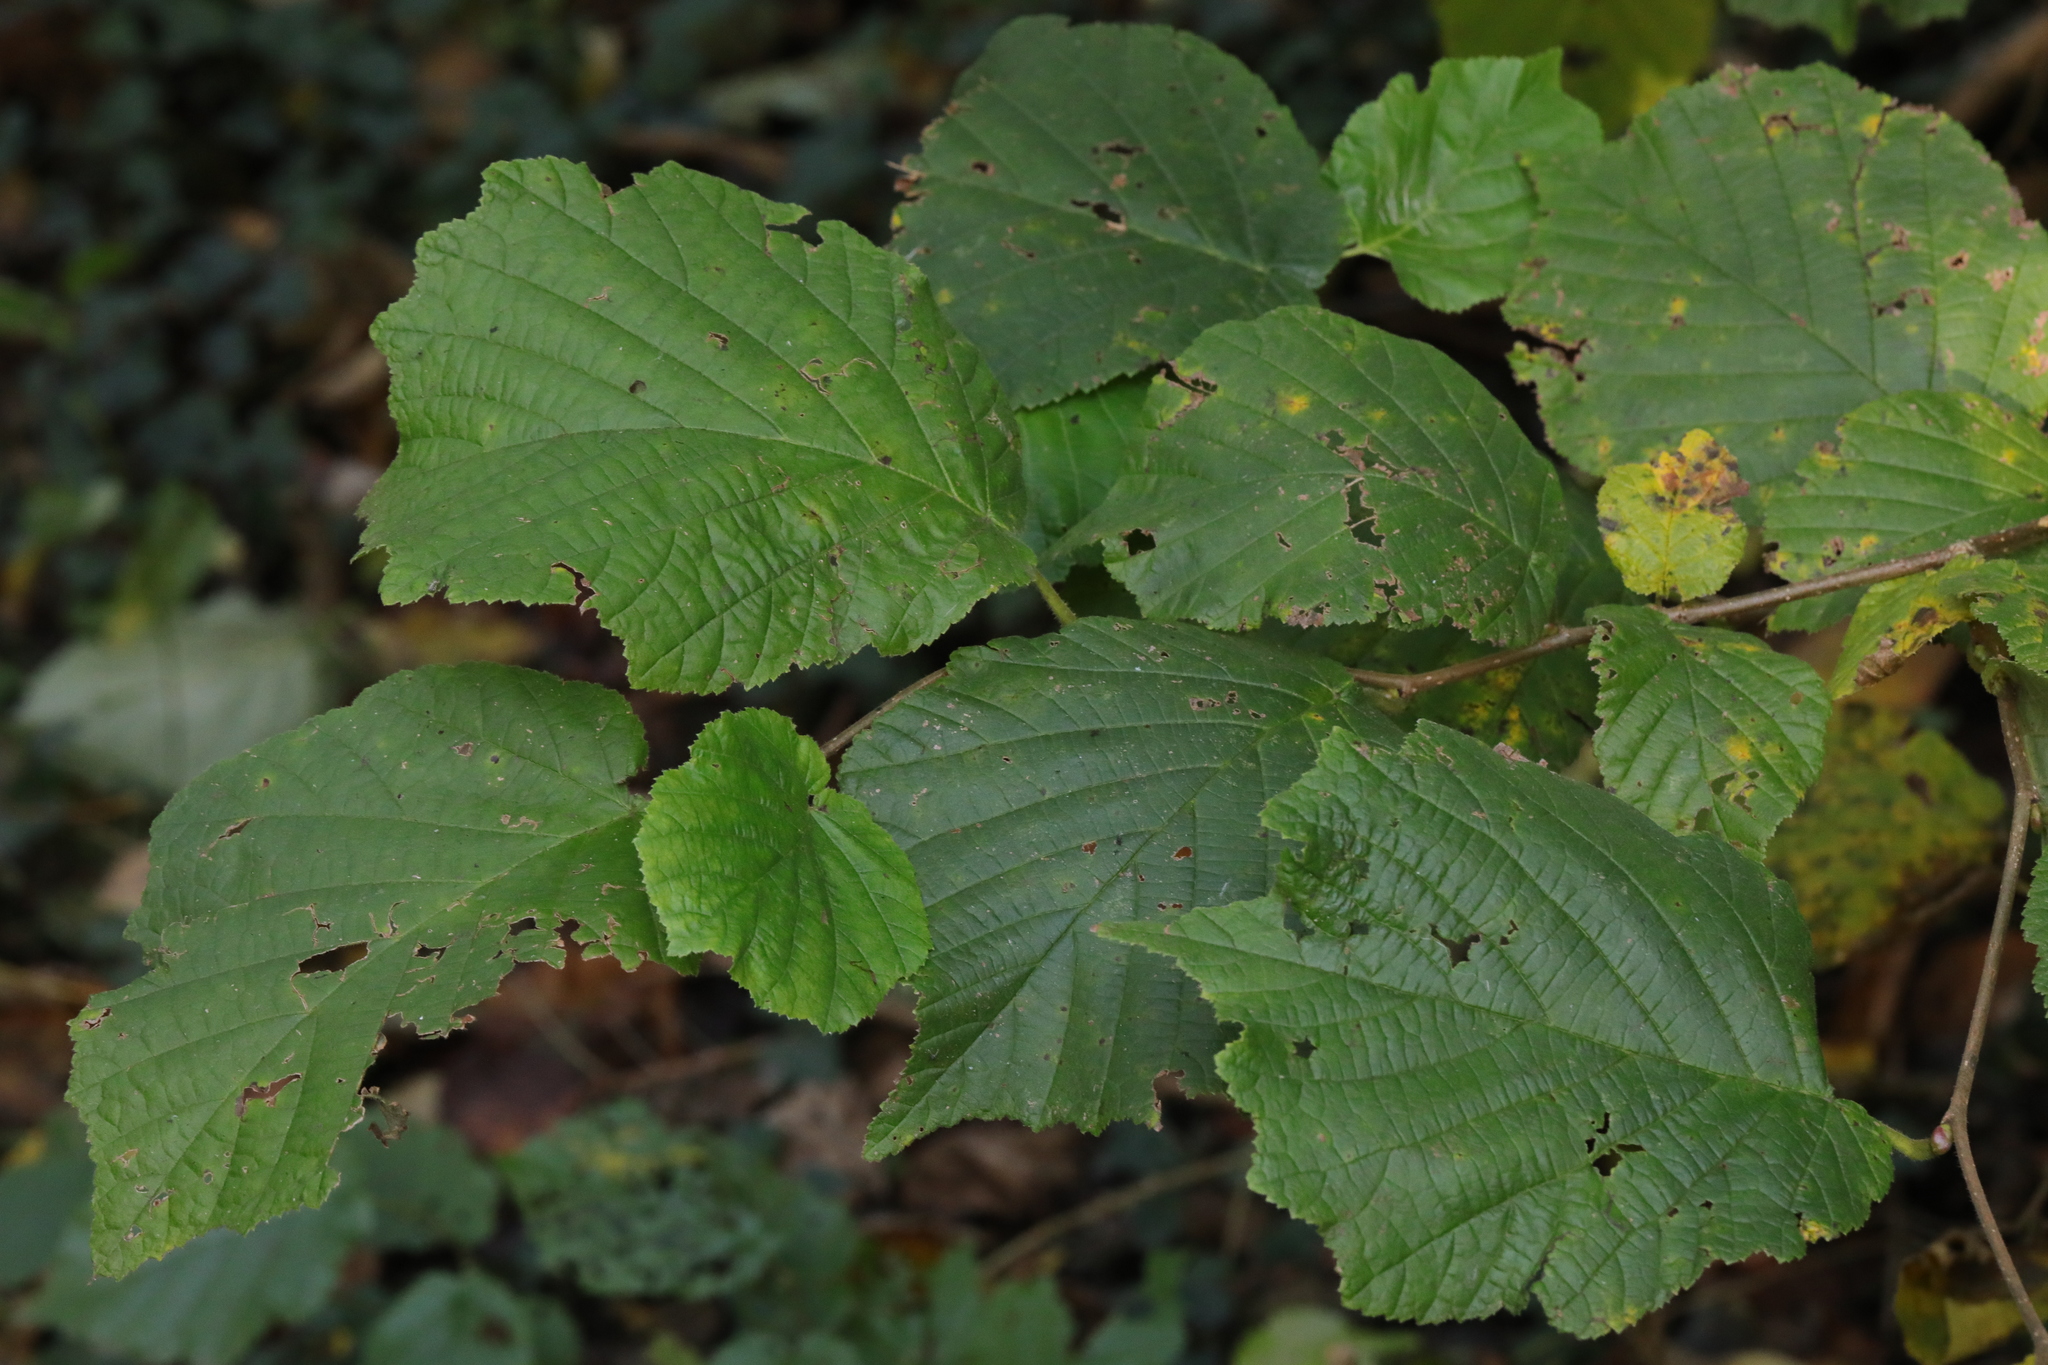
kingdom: Plantae
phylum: Tracheophyta
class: Magnoliopsida
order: Fagales
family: Betulaceae
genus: Corylus
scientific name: Corylus avellana
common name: European hazel
